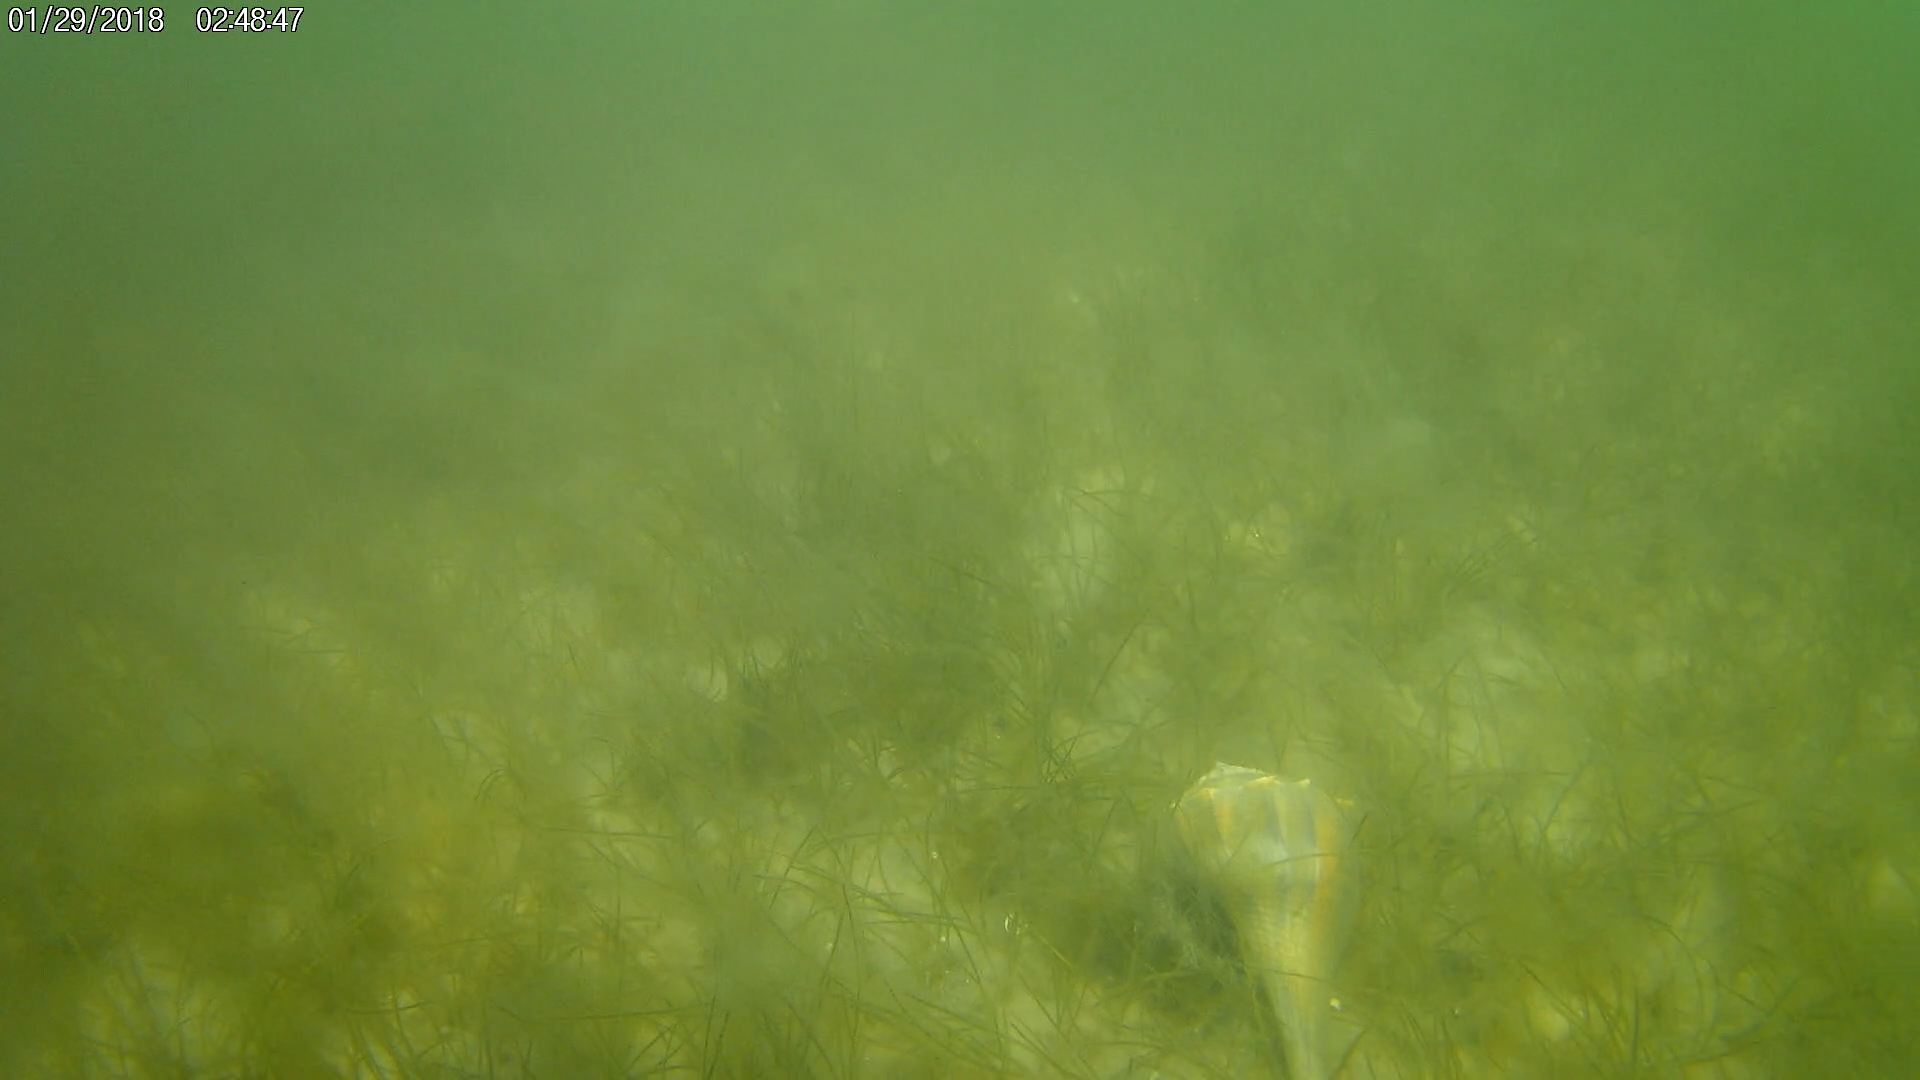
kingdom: Animalia
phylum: Mollusca
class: Gastropoda
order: Neogastropoda
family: Busyconidae
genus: Sinistrofulgur
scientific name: Sinistrofulgur sinistrum
